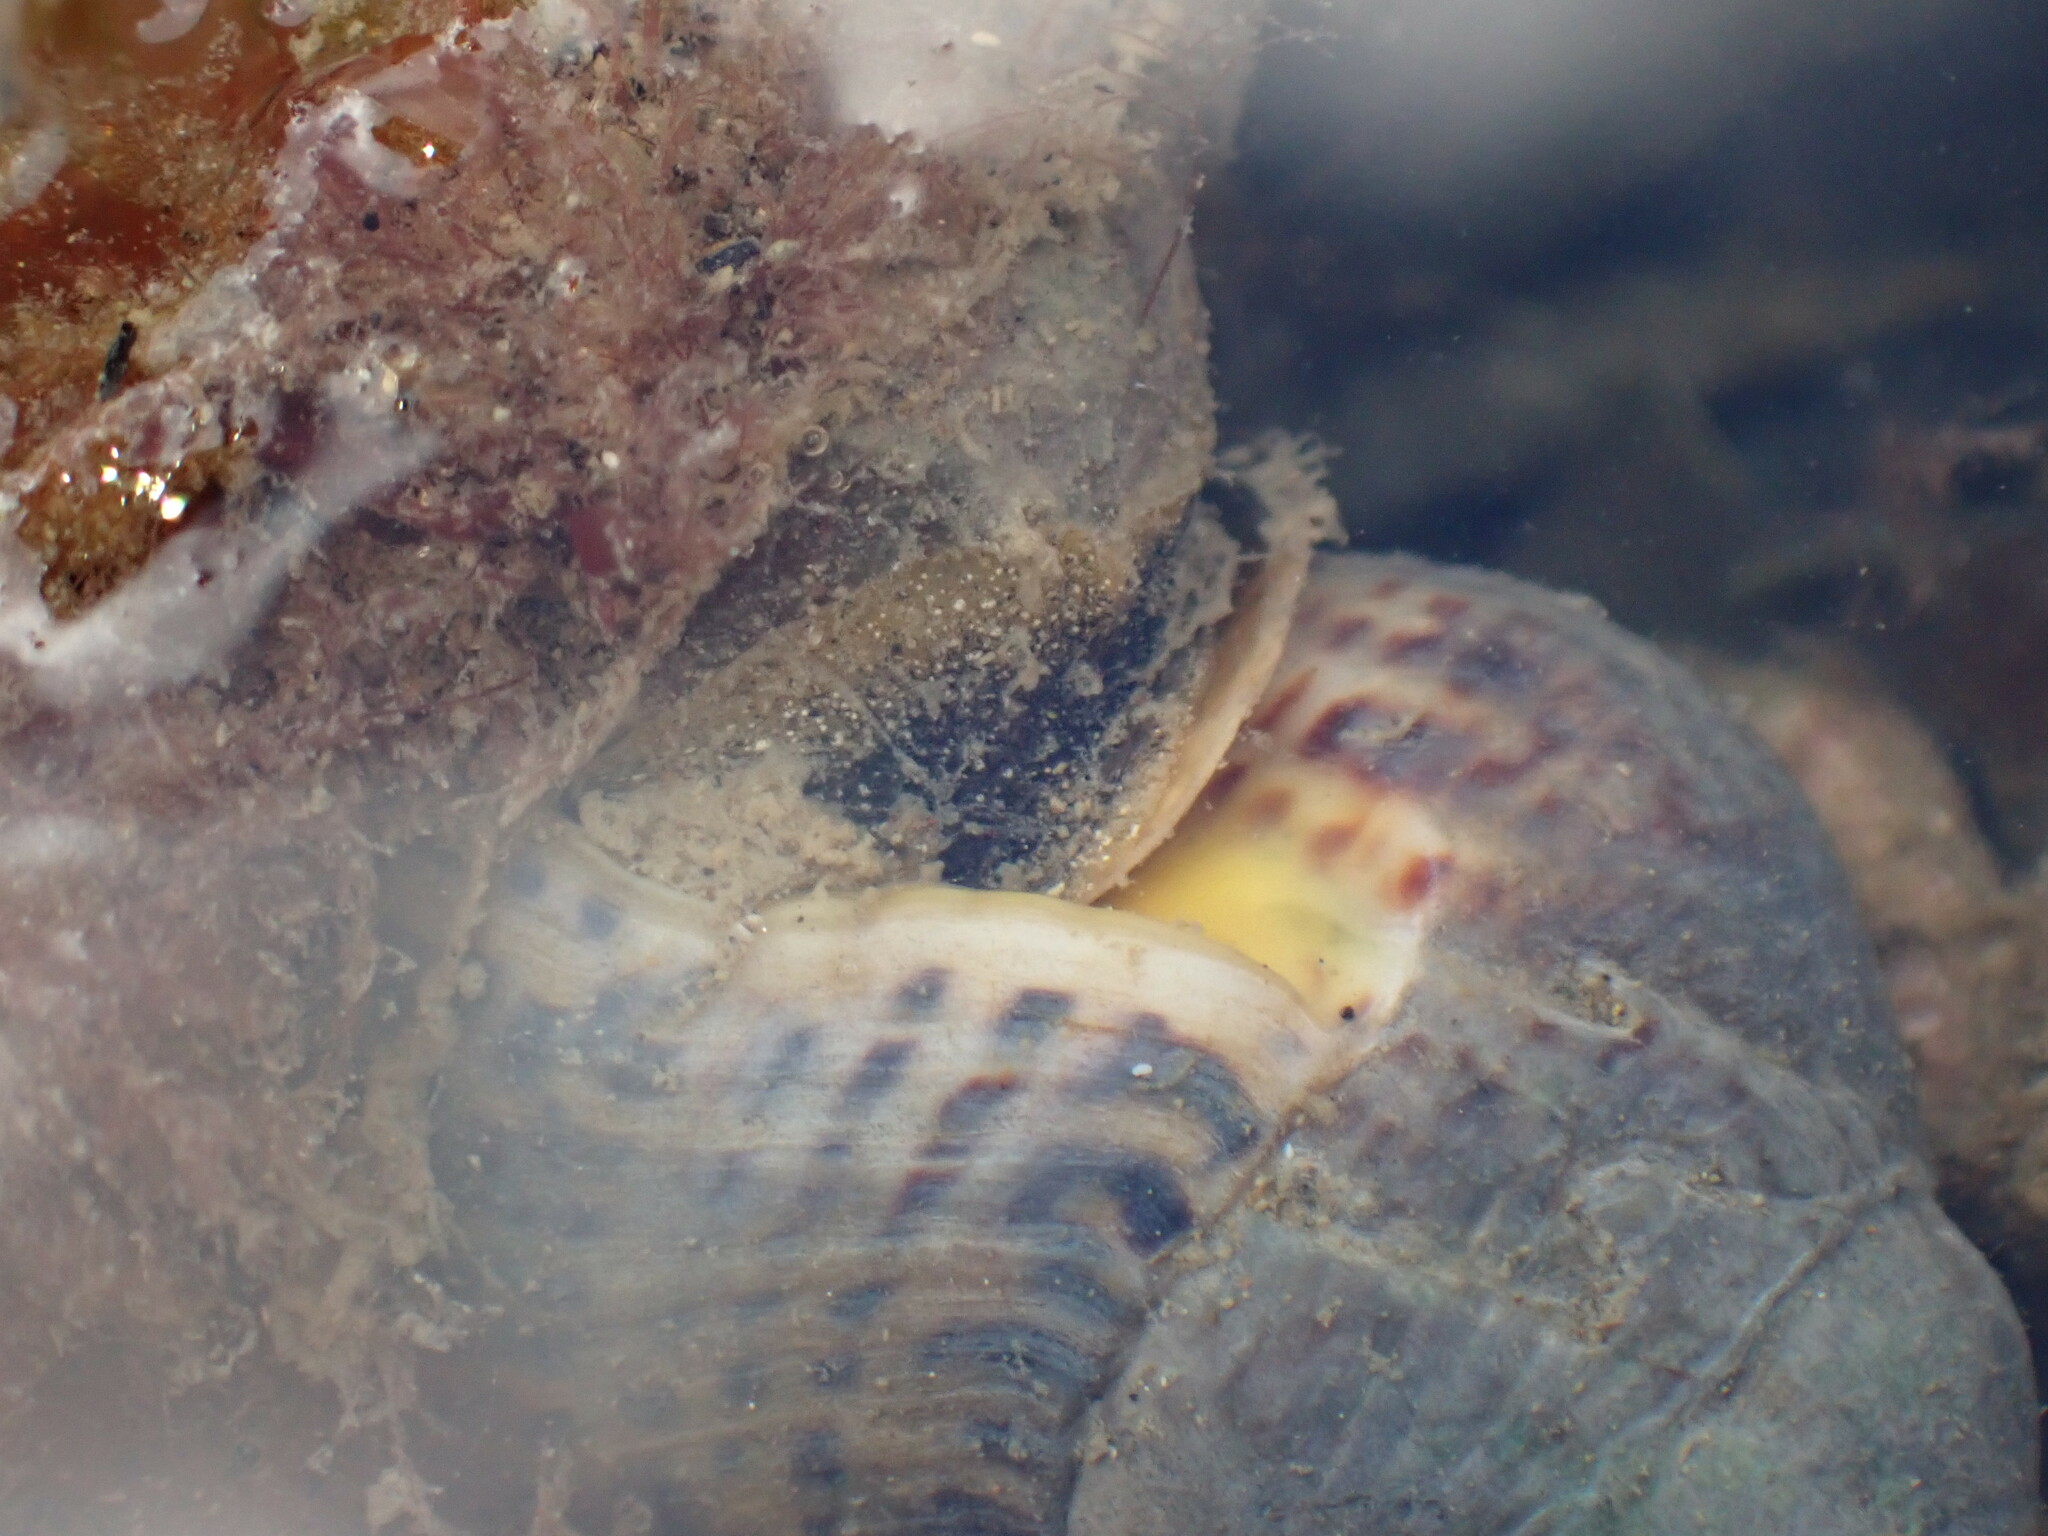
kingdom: Animalia
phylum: Mollusca
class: Gastropoda
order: Neogastropoda
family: Cominellidae
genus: Cominella
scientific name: Cominella adspersa
